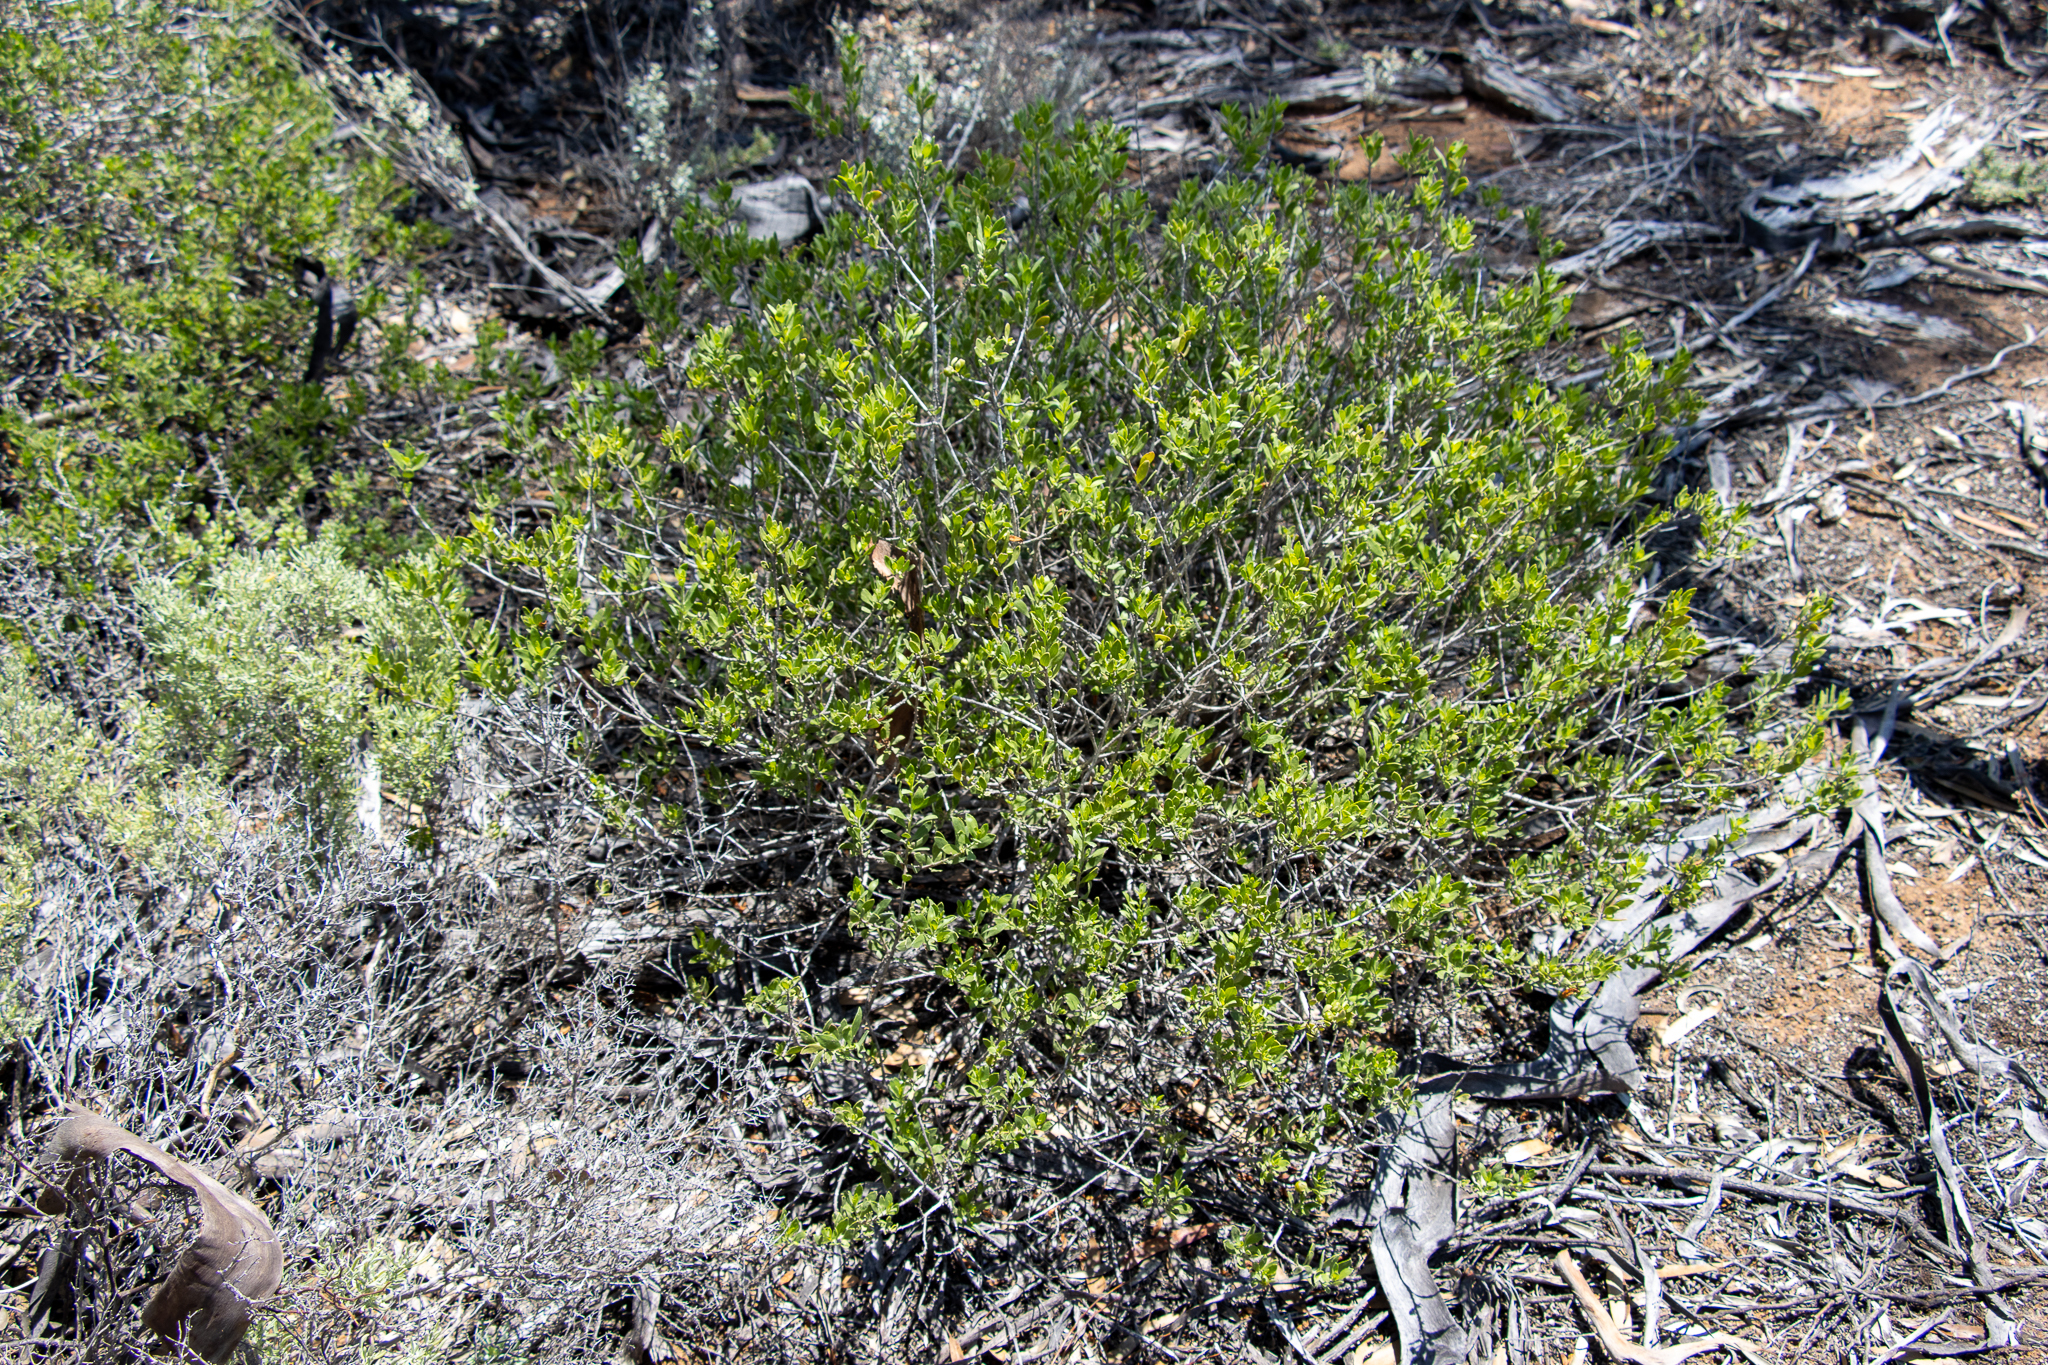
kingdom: Plantae
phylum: Tracheophyta
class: Magnoliopsida
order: Lamiales
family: Scrophulariaceae
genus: Eremophila
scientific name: Eremophila glabra
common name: Black-fuchsia
